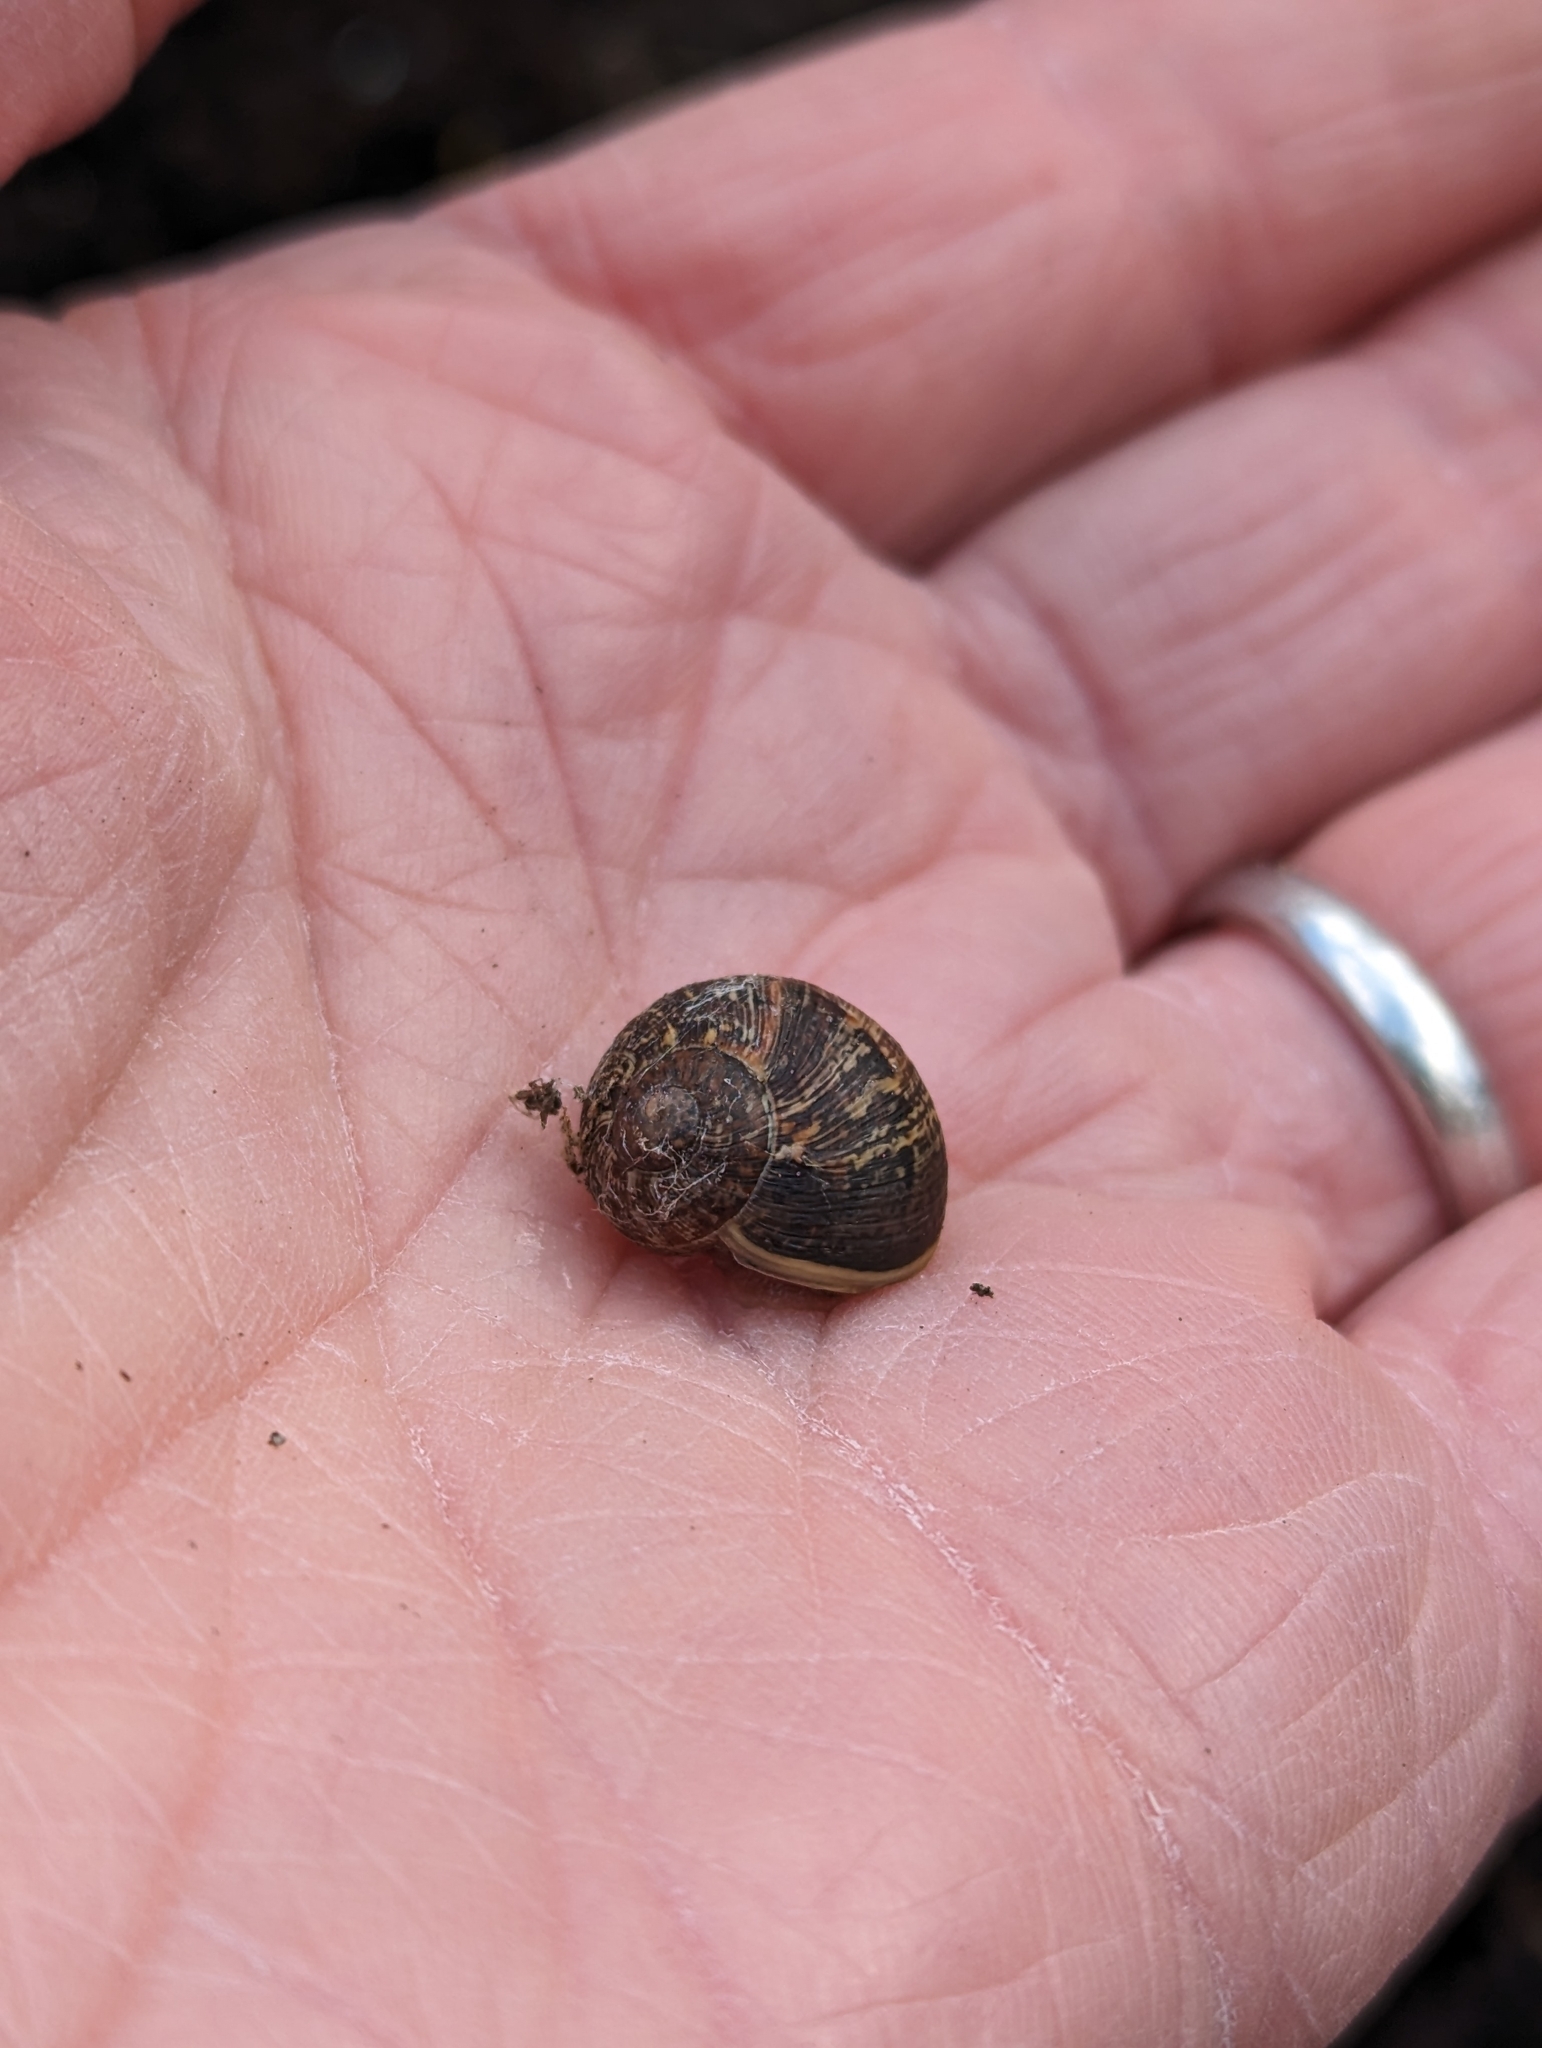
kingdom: Animalia
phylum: Mollusca
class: Gastropoda
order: Stylommatophora
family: Helicidae
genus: Cornu
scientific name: Cornu aspersum
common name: Brown garden snail
